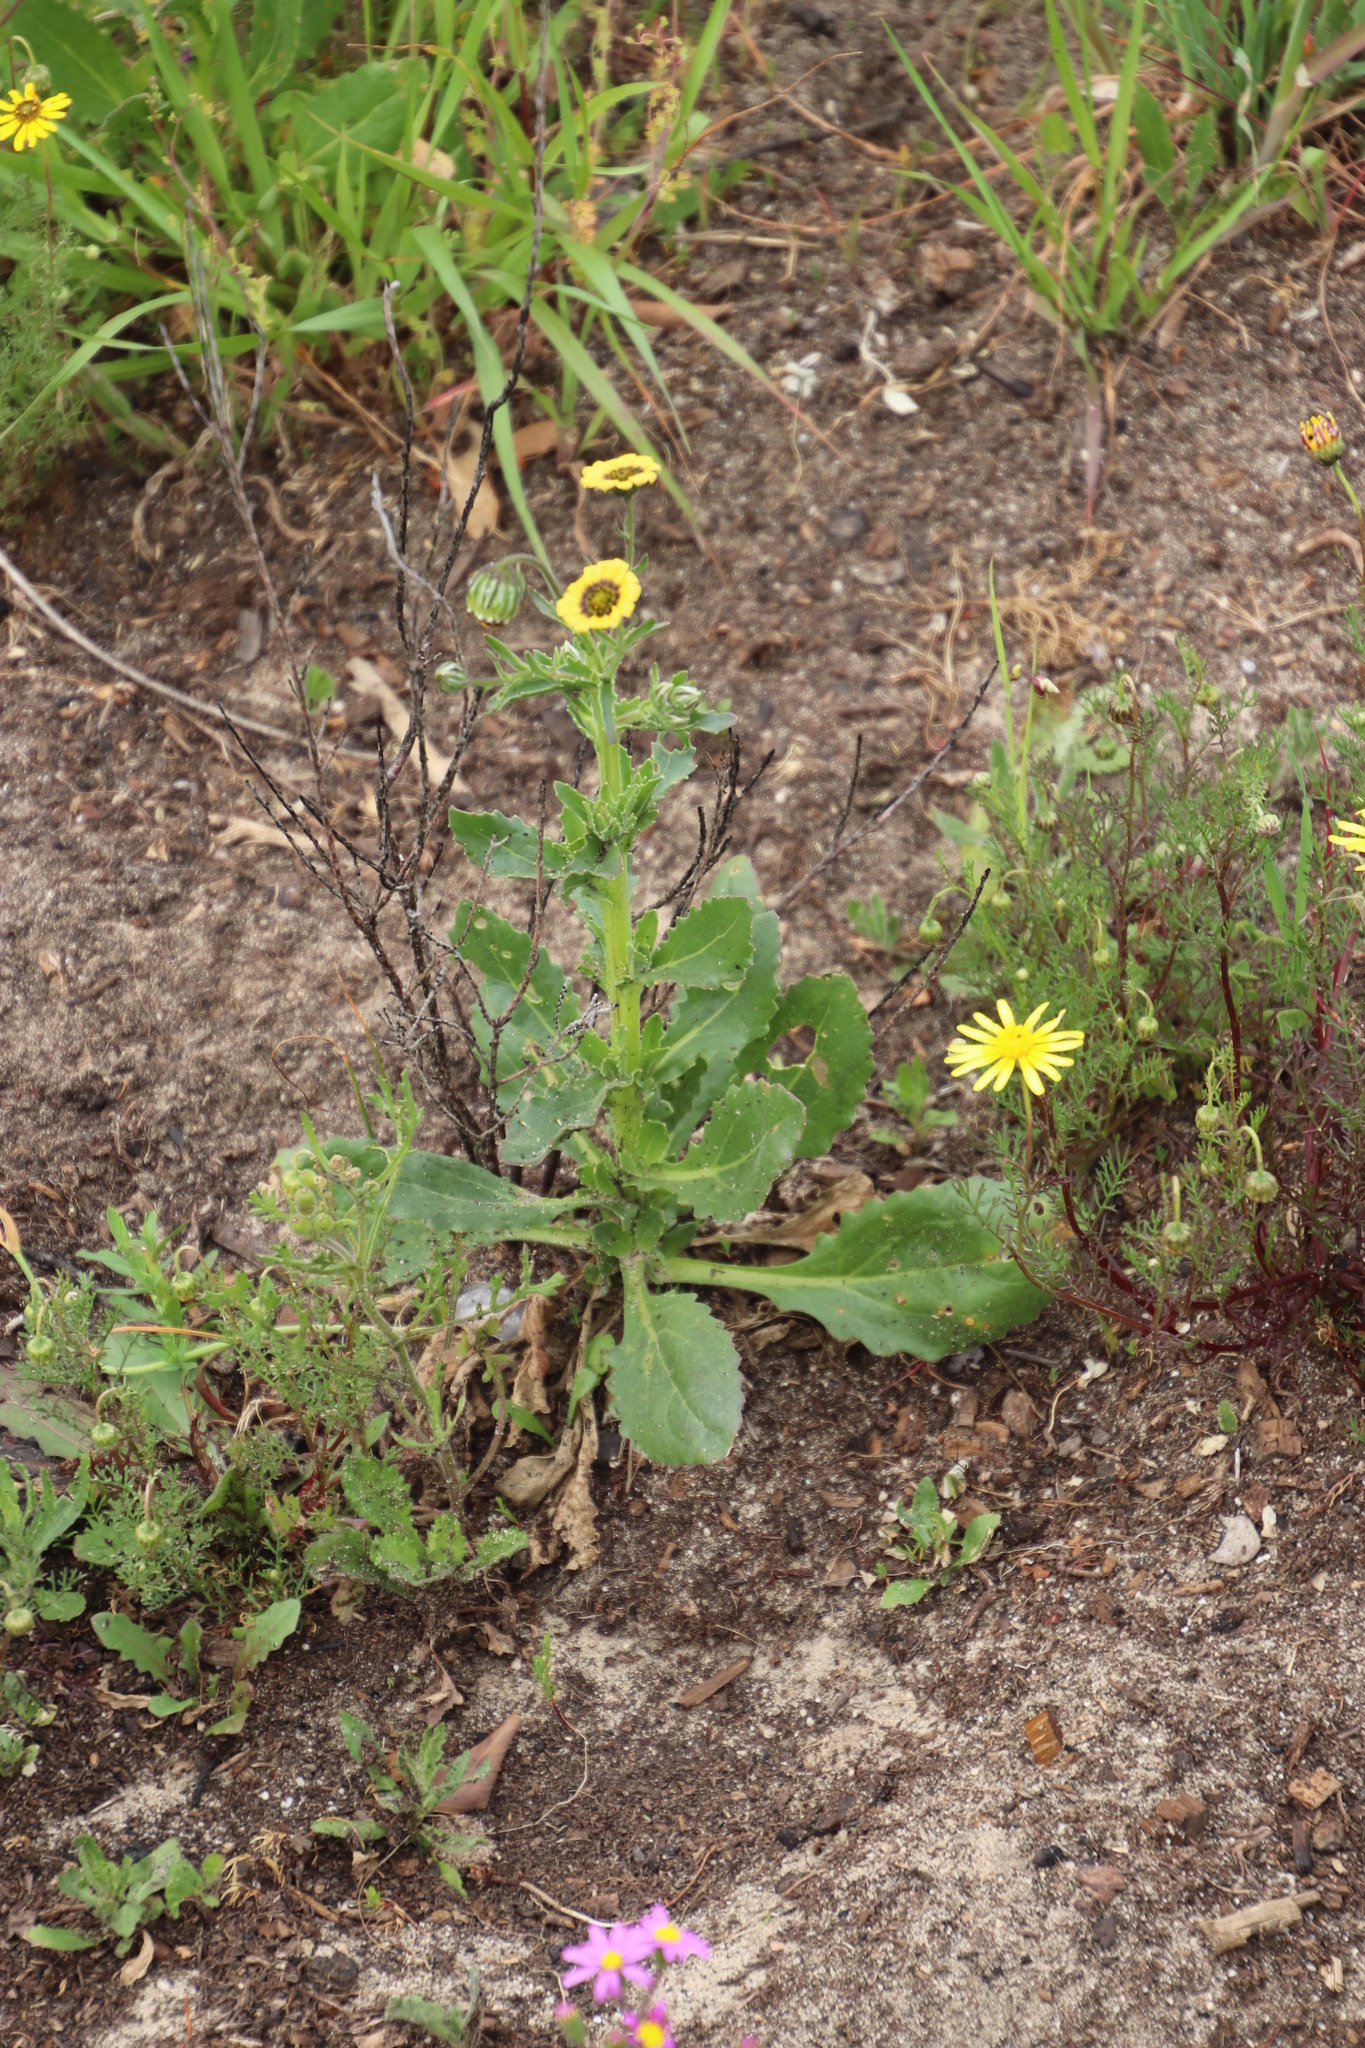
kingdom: Plantae
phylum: Tracheophyta
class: Magnoliopsida
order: Asterales
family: Asteraceae
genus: Osteospermum
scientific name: Osteospermum monstrosum
